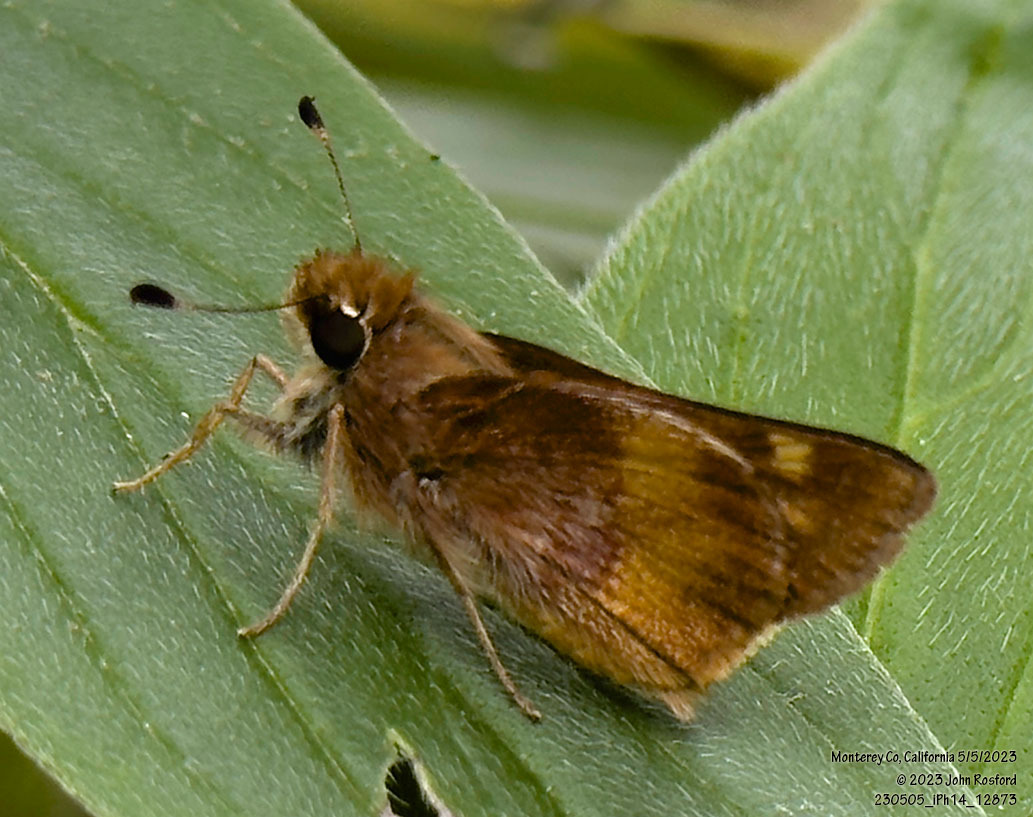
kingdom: Animalia
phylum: Arthropoda
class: Insecta
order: Lepidoptera
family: Hesperiidae
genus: Lon
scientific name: Lon melane
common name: Umber skipper
